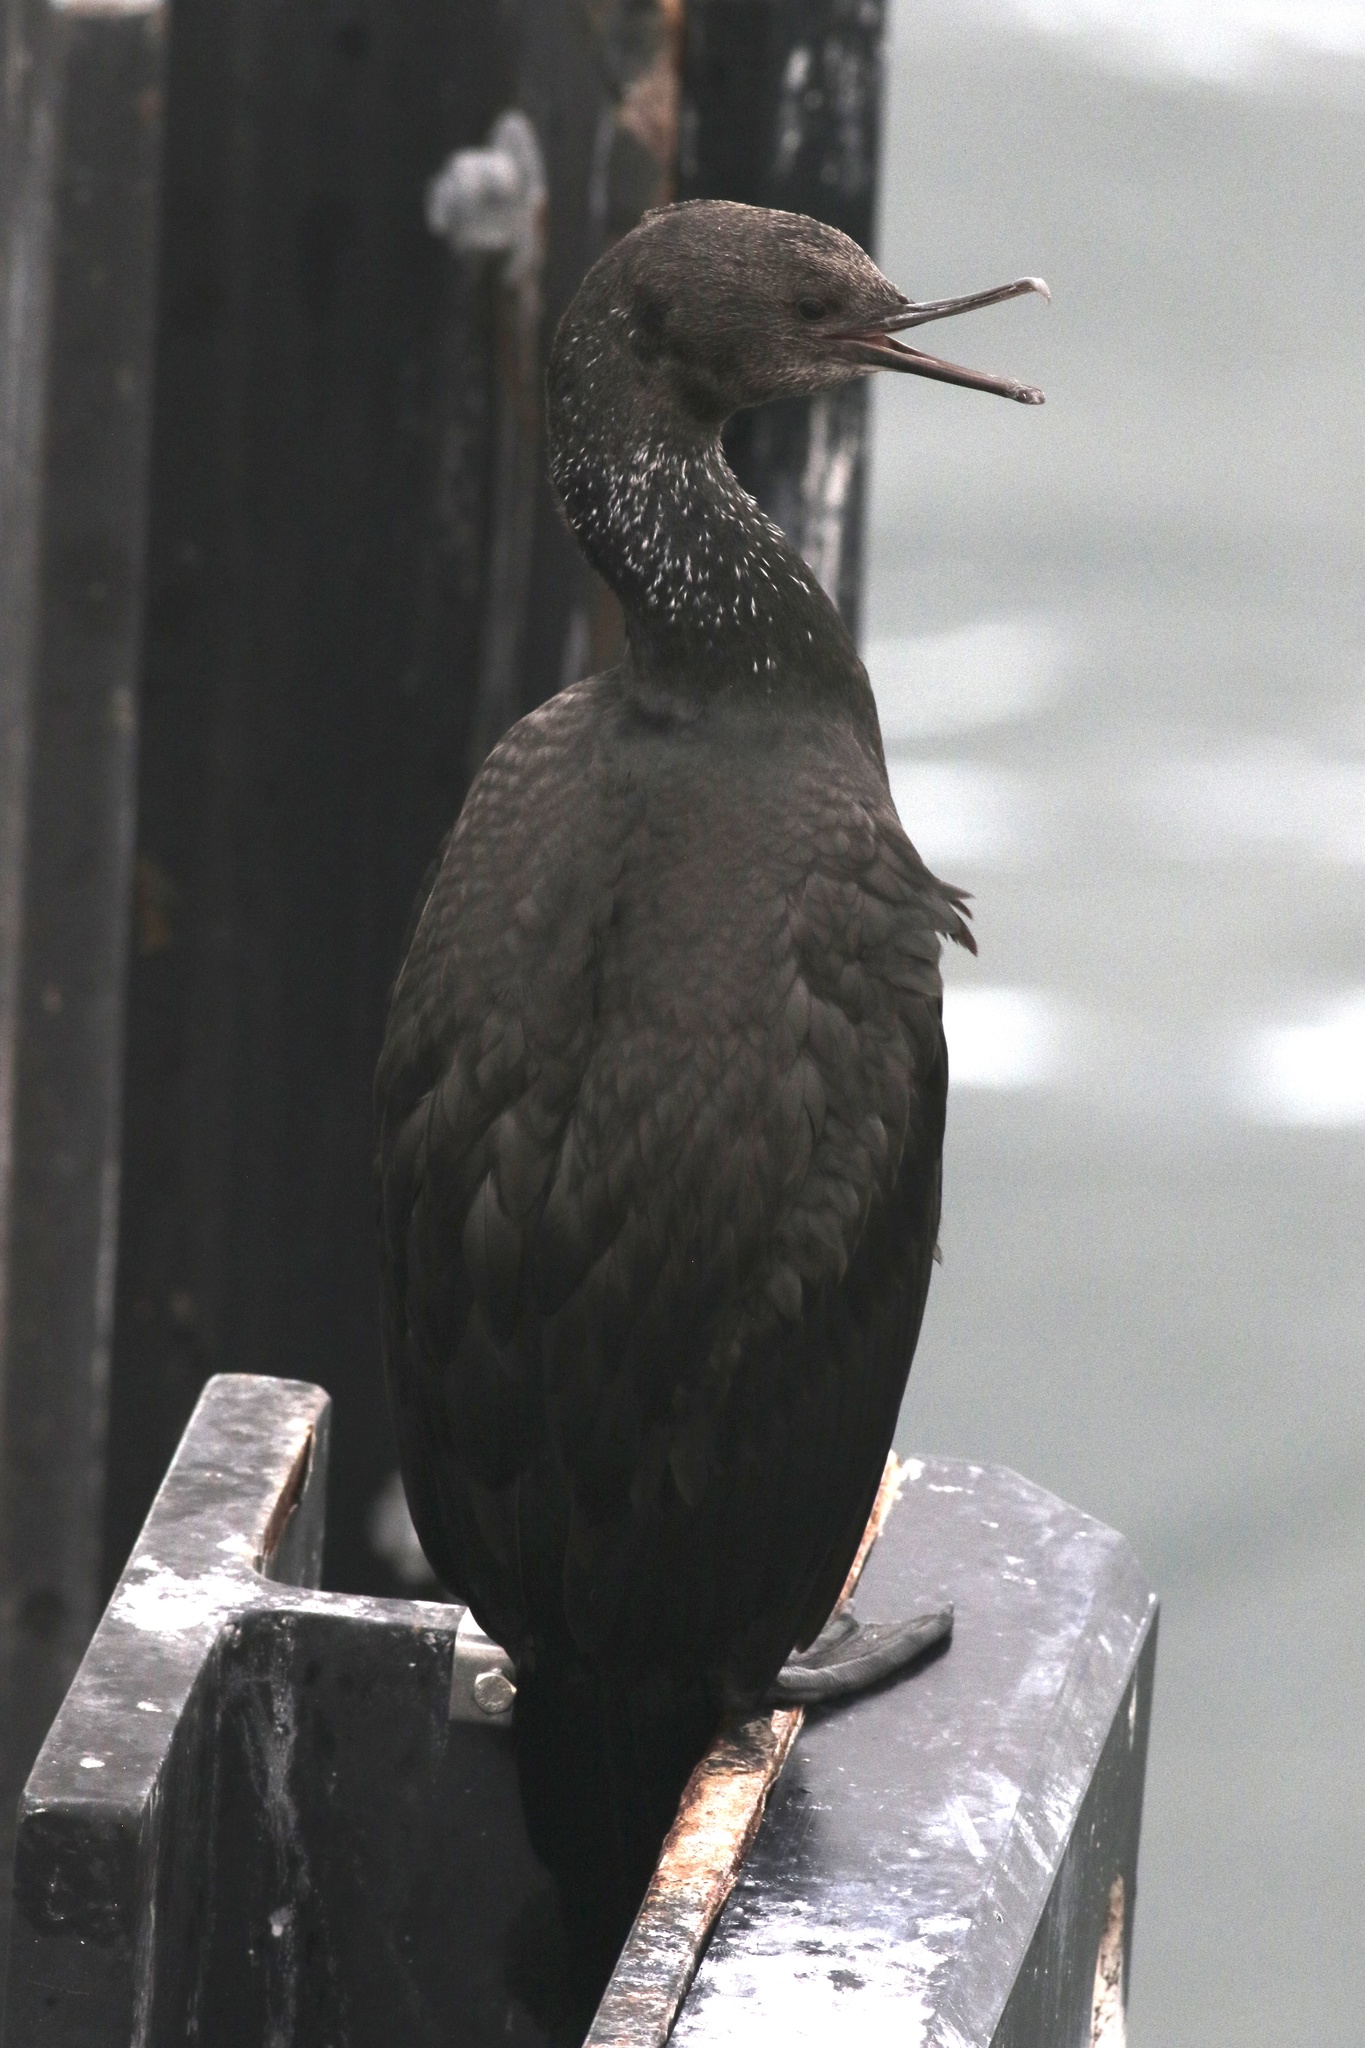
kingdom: Animalia
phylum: Chordata
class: Aves
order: Suliformes
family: Phalacrocoracidae
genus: Phalacrocorax
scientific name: Phalacrocorax pelagicus
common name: Pelagic cormorant
